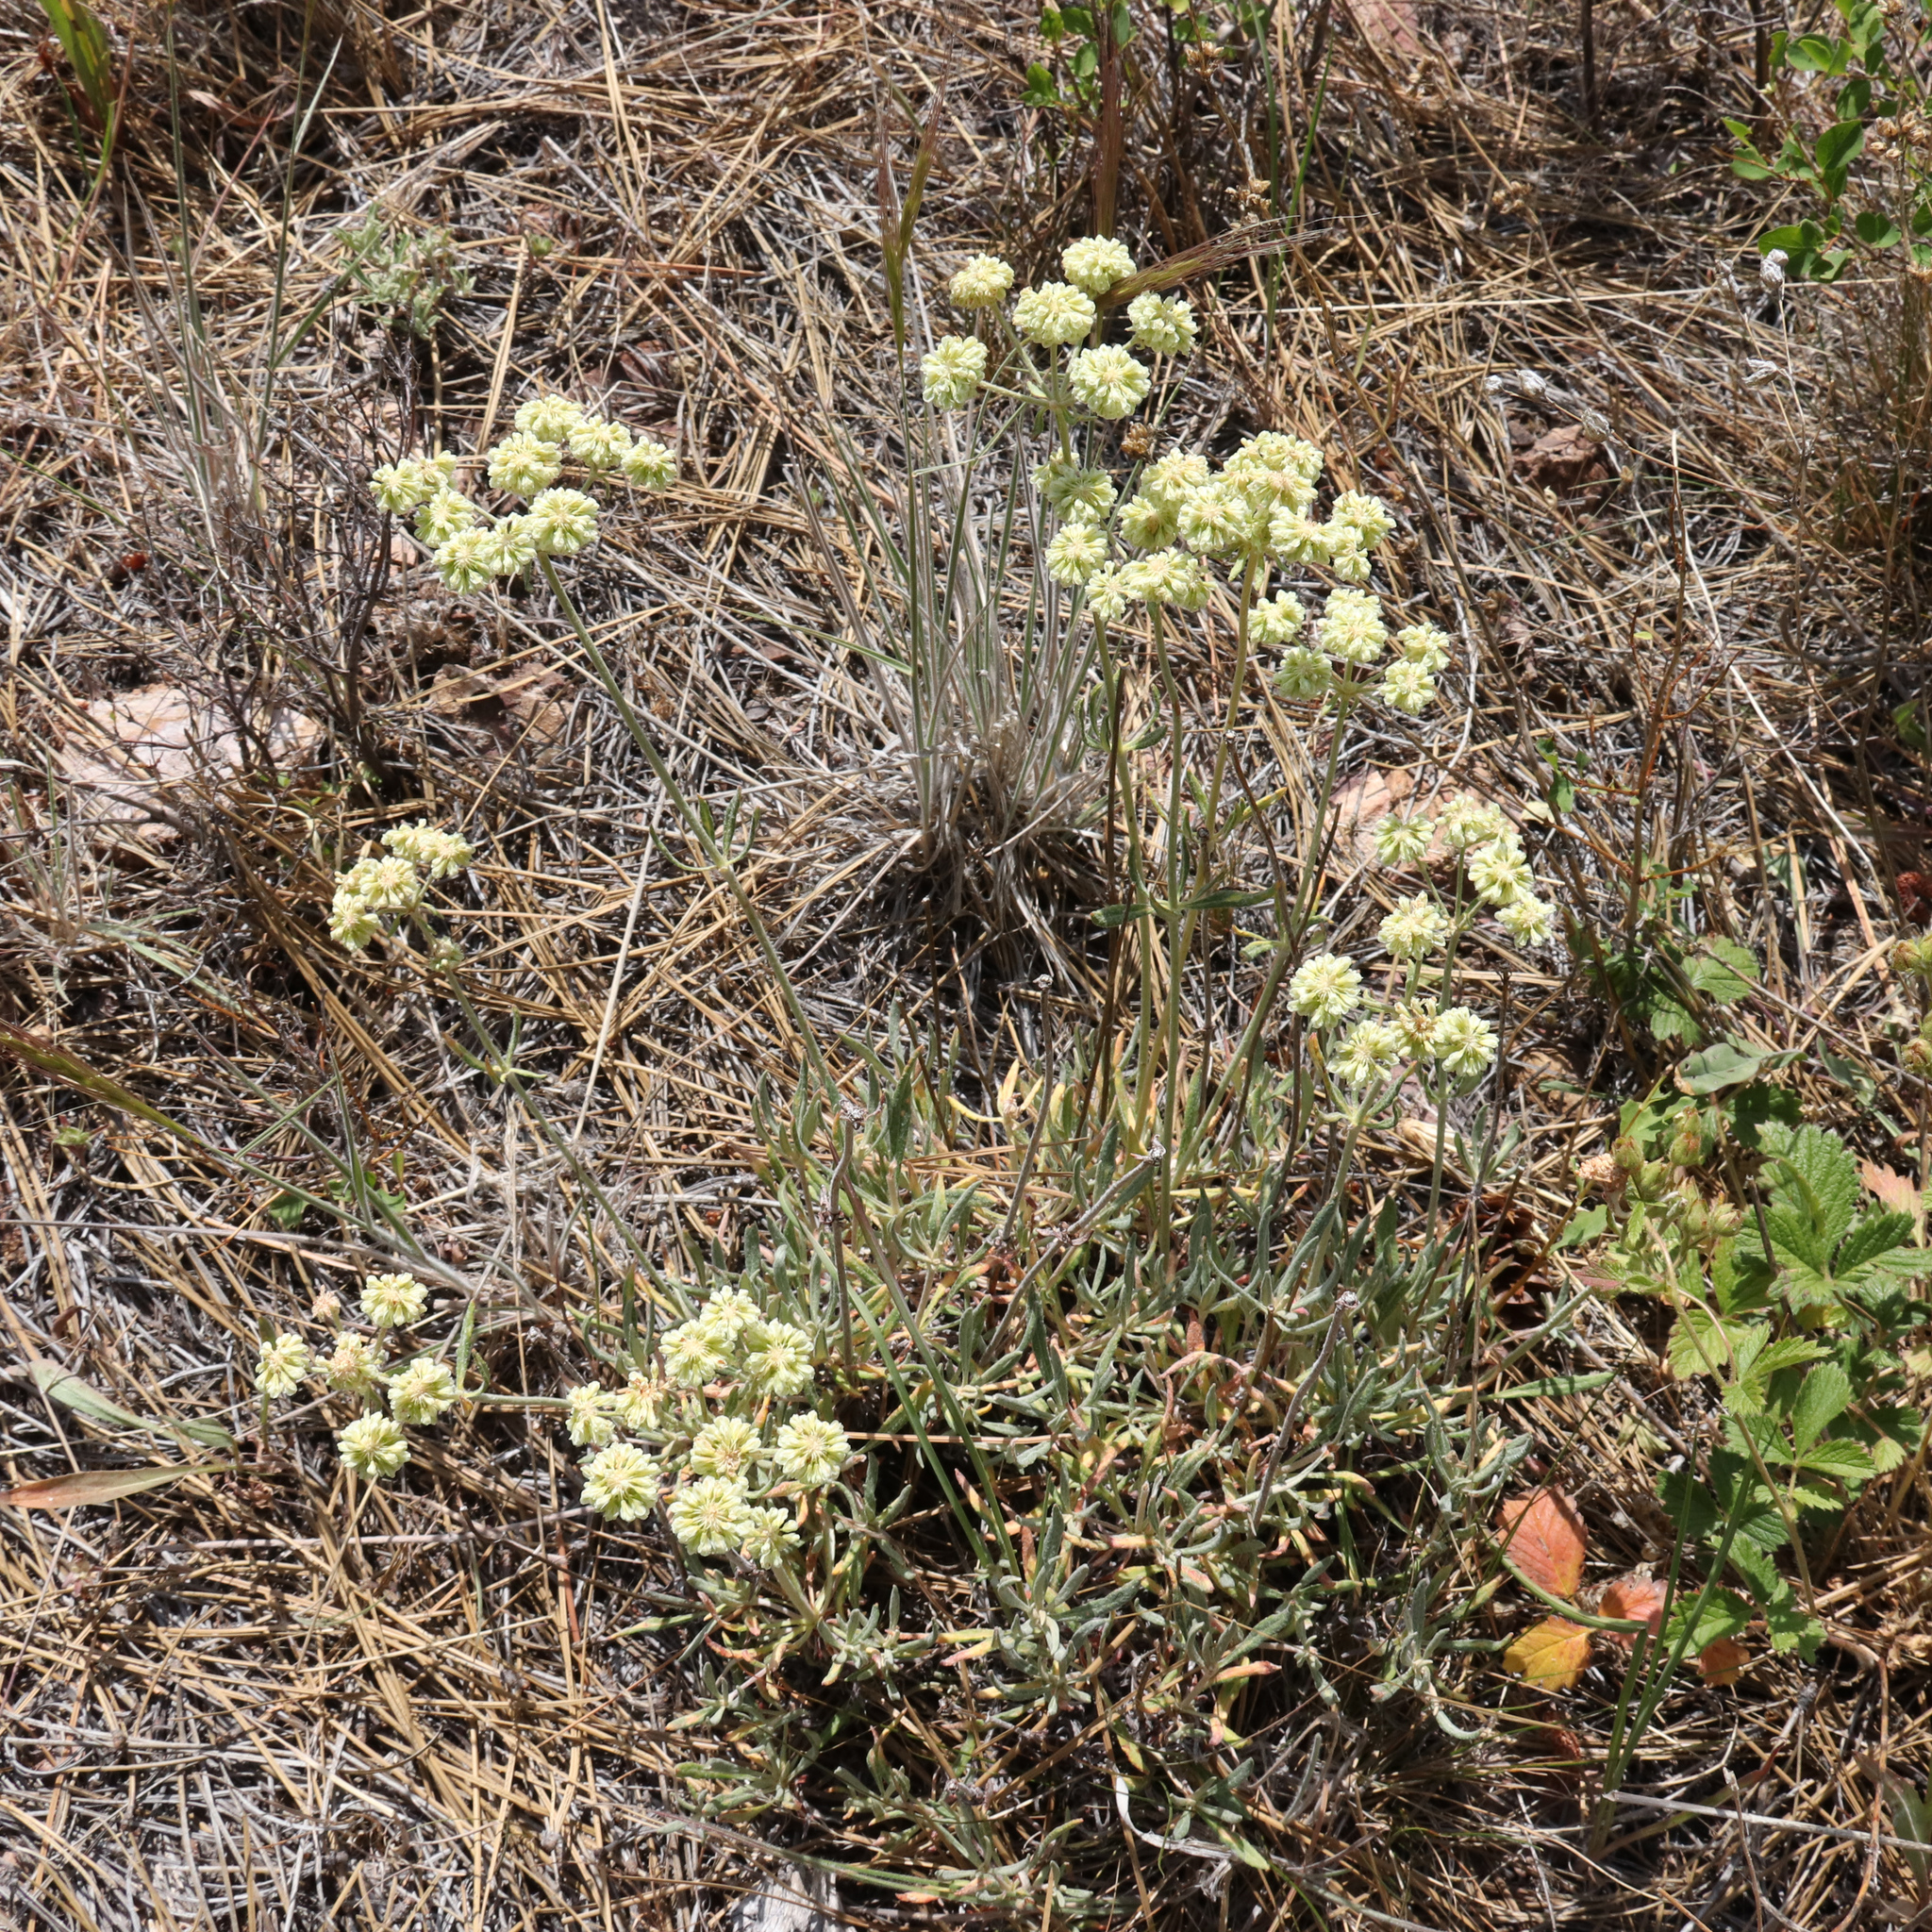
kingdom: Plantae
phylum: Tracheophyta
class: Magnoliopsida
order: Caryophyllales
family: Polygonaceae
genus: Eriogonum
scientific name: Eriogonum heracleoides
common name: Wyeth's buckwheat
